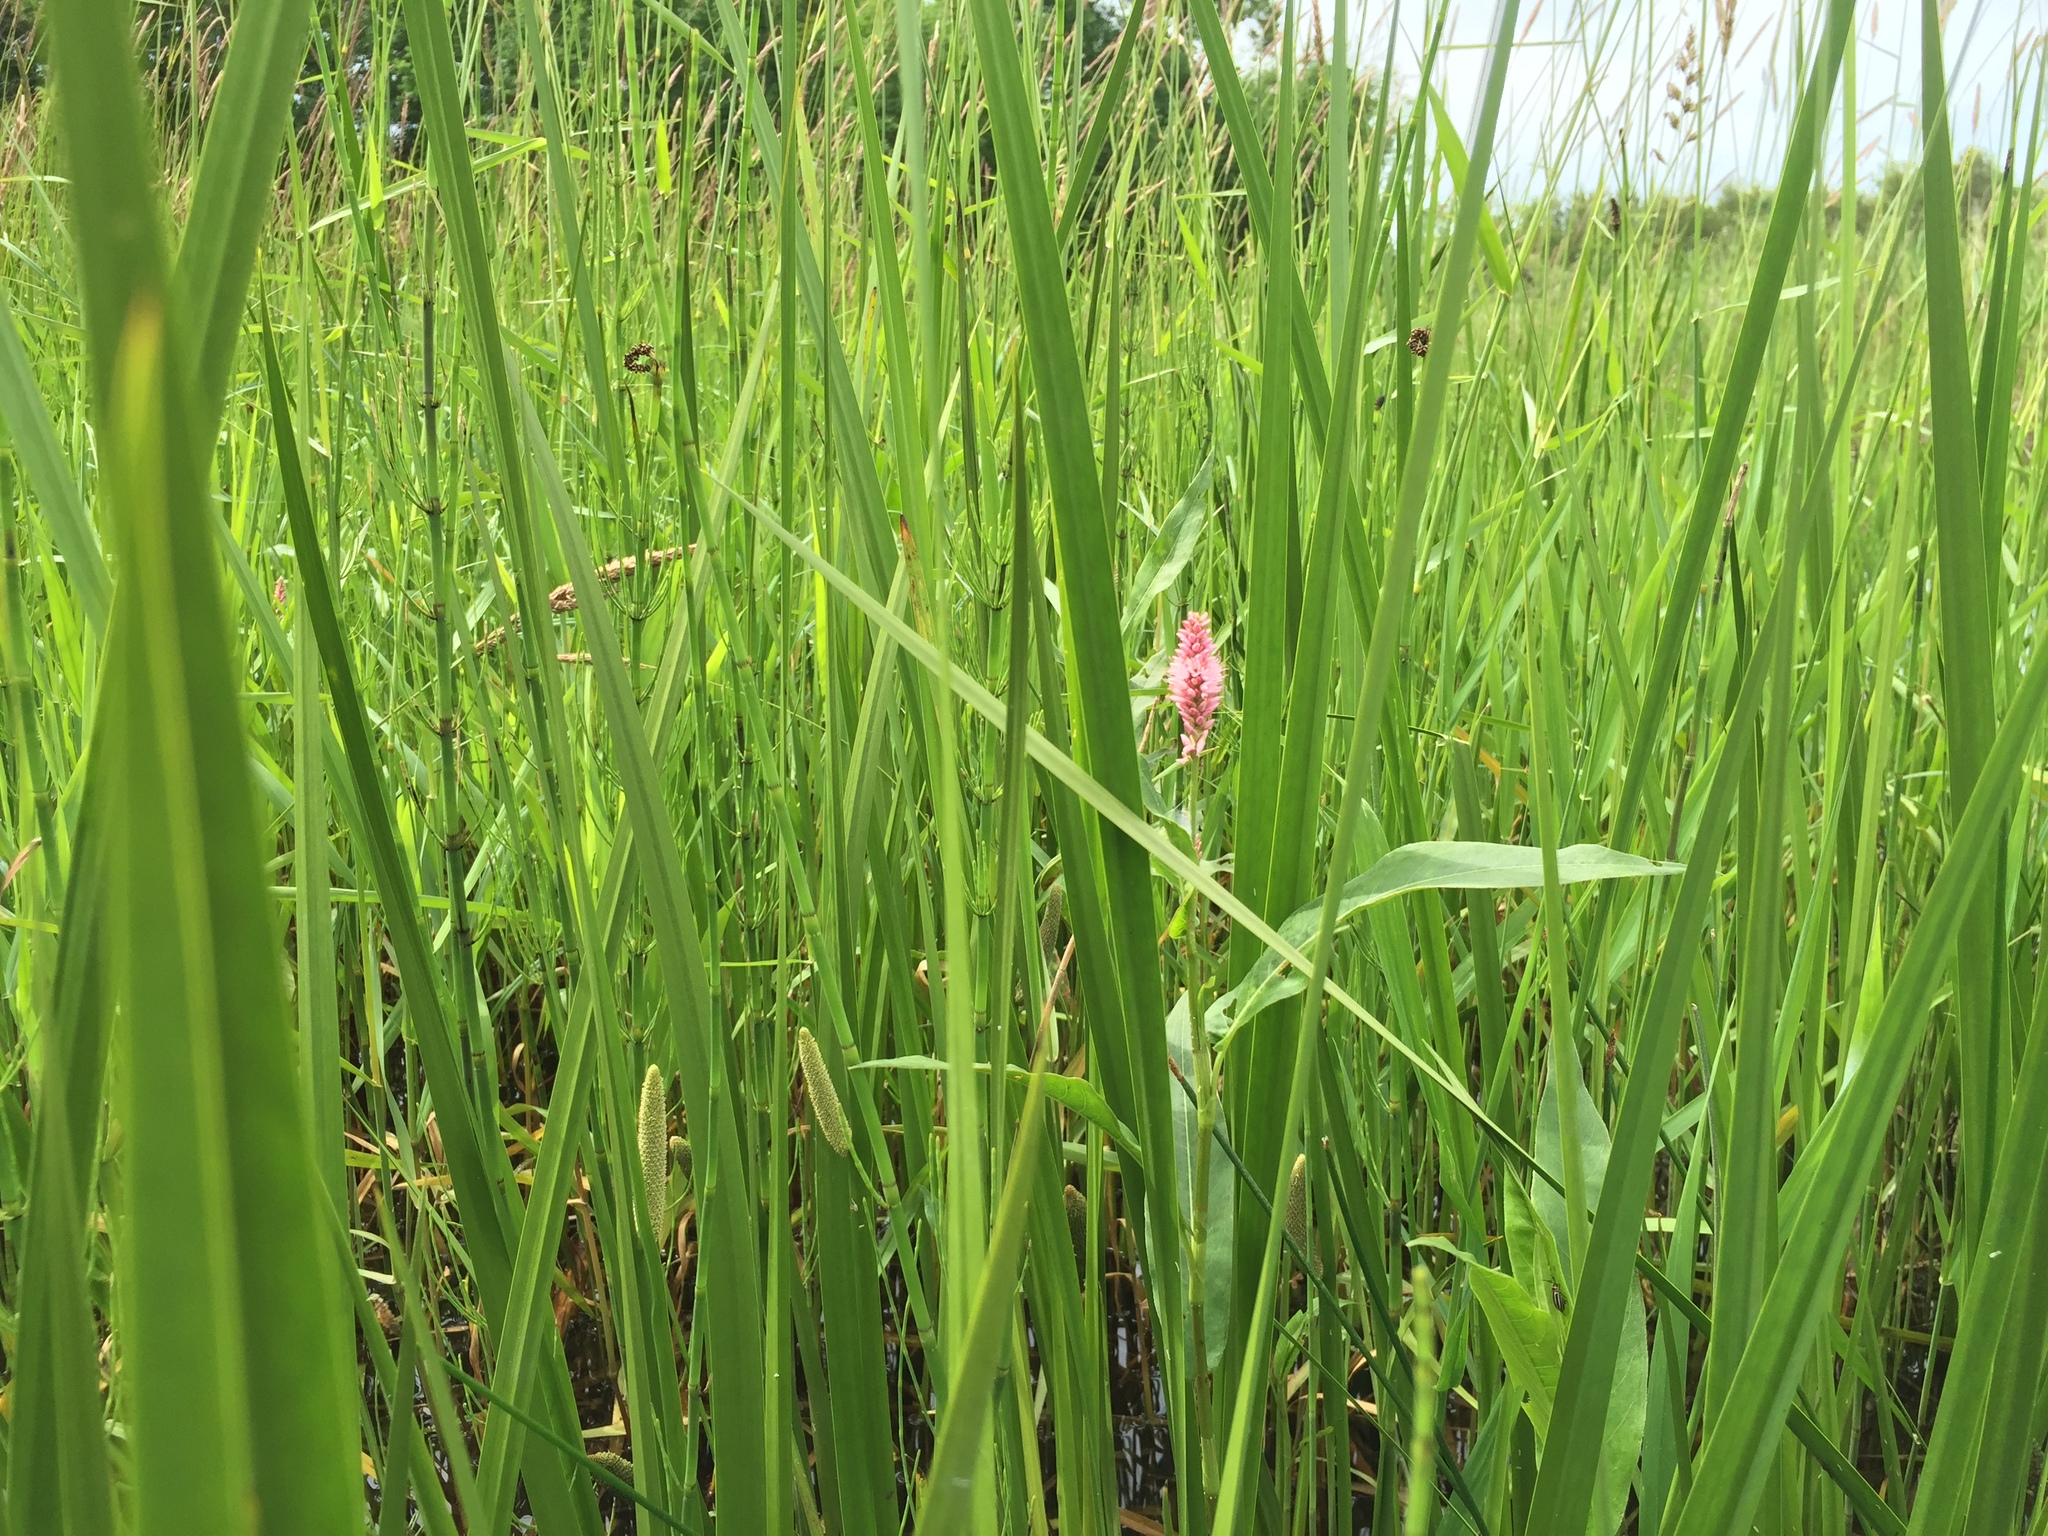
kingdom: Plantae
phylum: Tracheophyta
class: Magnoliopsida
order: Caryophyllales
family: Polygonaceae
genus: Persicaria
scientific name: Persicaria amphibia
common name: Amphibious bistort
